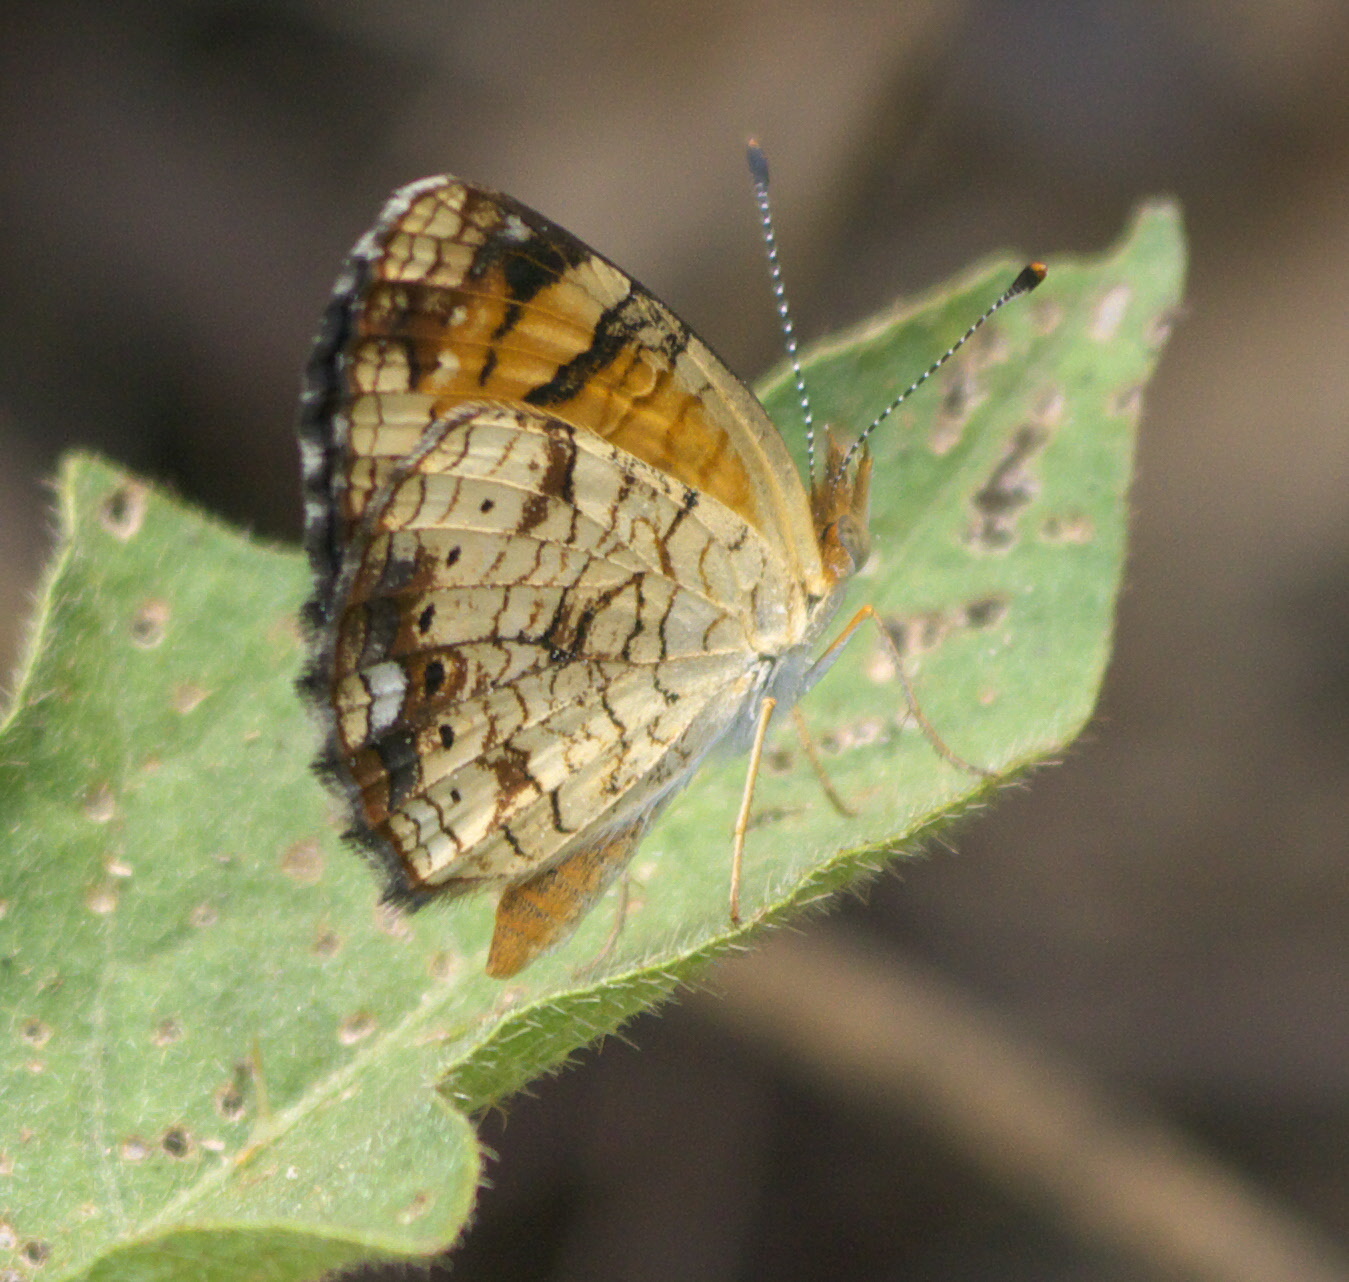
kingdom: Animalia
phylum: Arthropoda
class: Insecta
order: Lepidoptera
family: Nymphalidae
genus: Phyciodes
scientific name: Phyciodes tharos
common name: Pearl crescent
